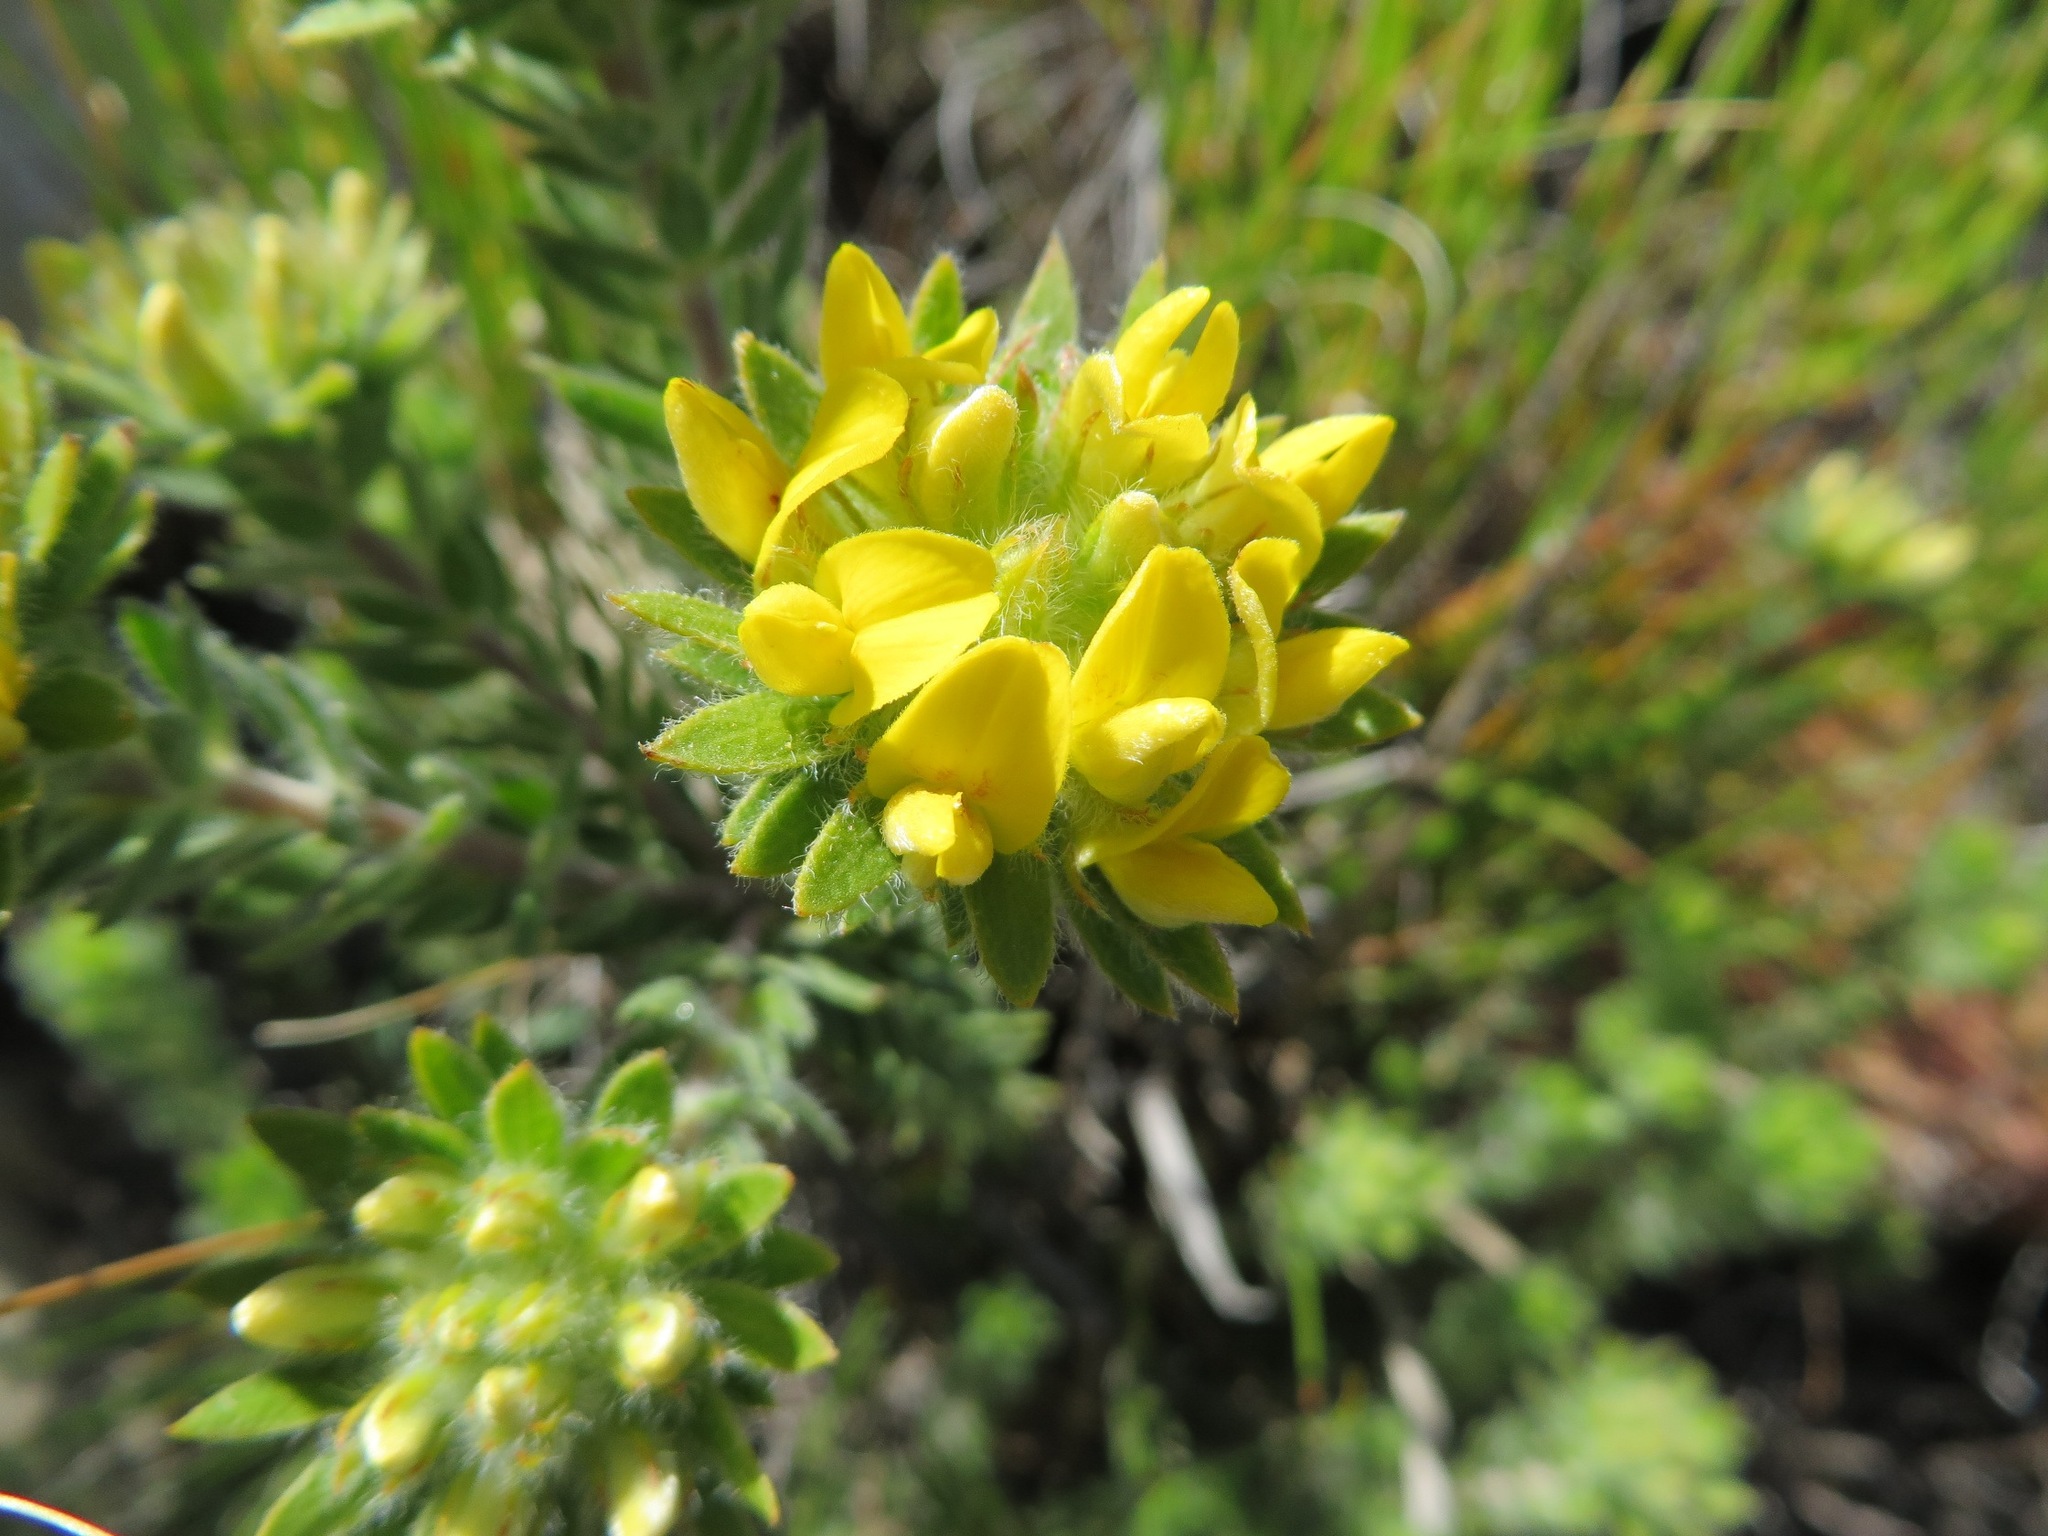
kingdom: Plantae
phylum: Tracheophyta
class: Magnoliopsida
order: Fabales
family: Fabaceae
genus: Aspalathus
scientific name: Aspalathus aspalathoides
